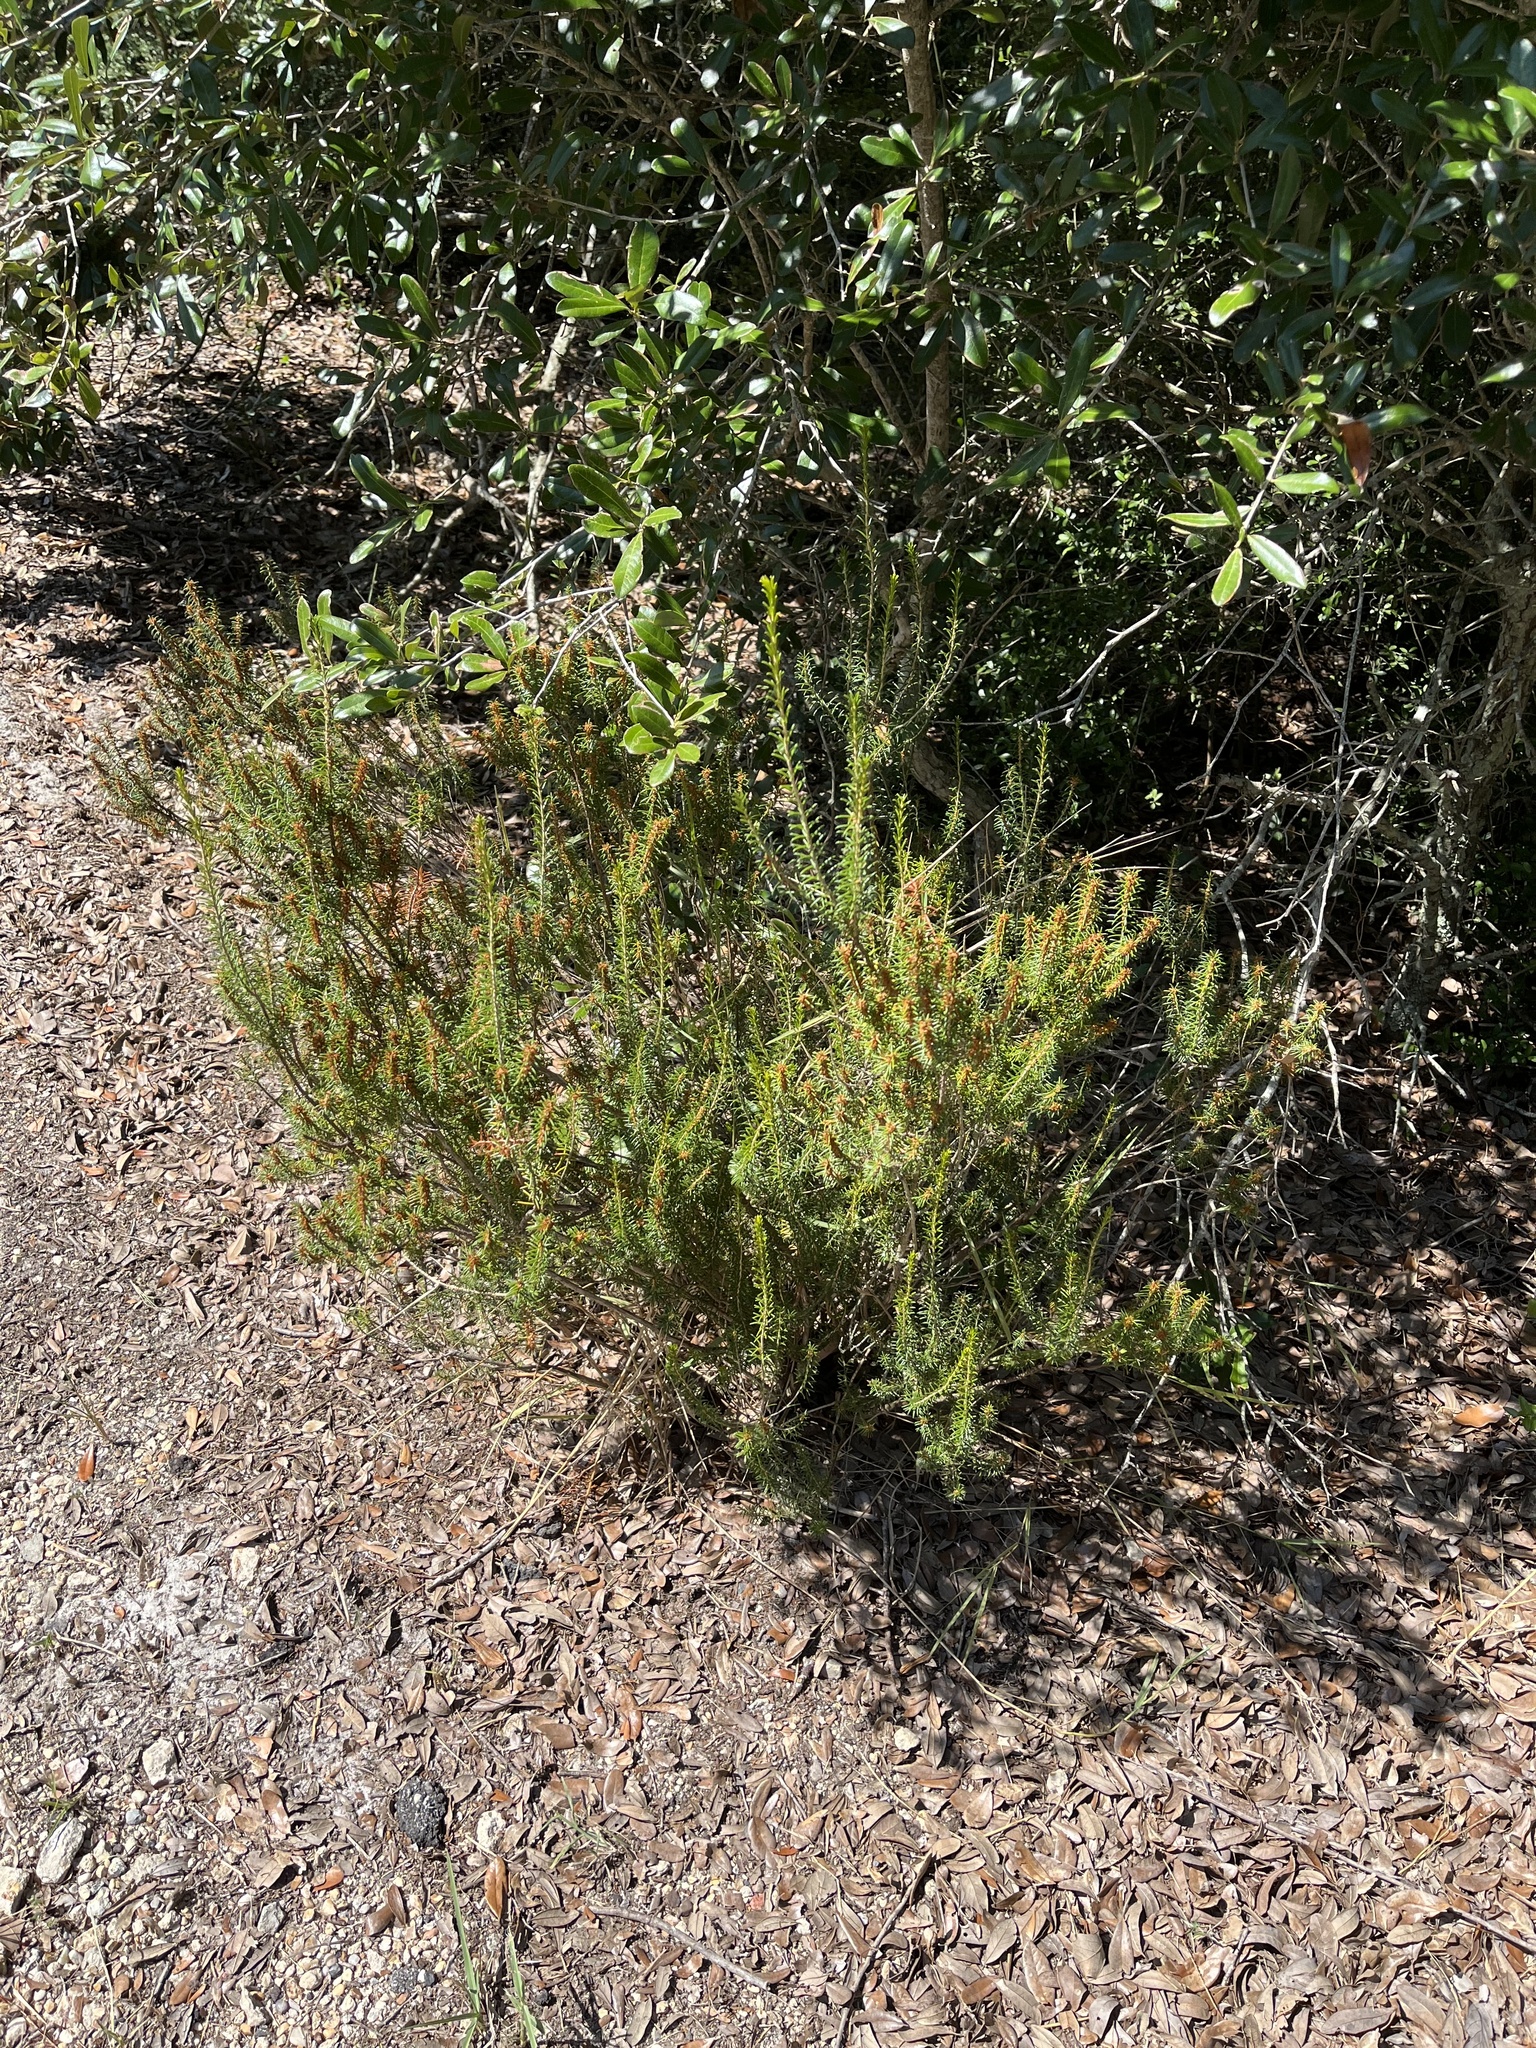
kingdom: Plantae
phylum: Tracheophyta
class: Magnoliopsida
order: Ericales
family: Ericaceae
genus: Ceratiola
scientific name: Ceratiola ericoides
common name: Sandhill-rosemary
